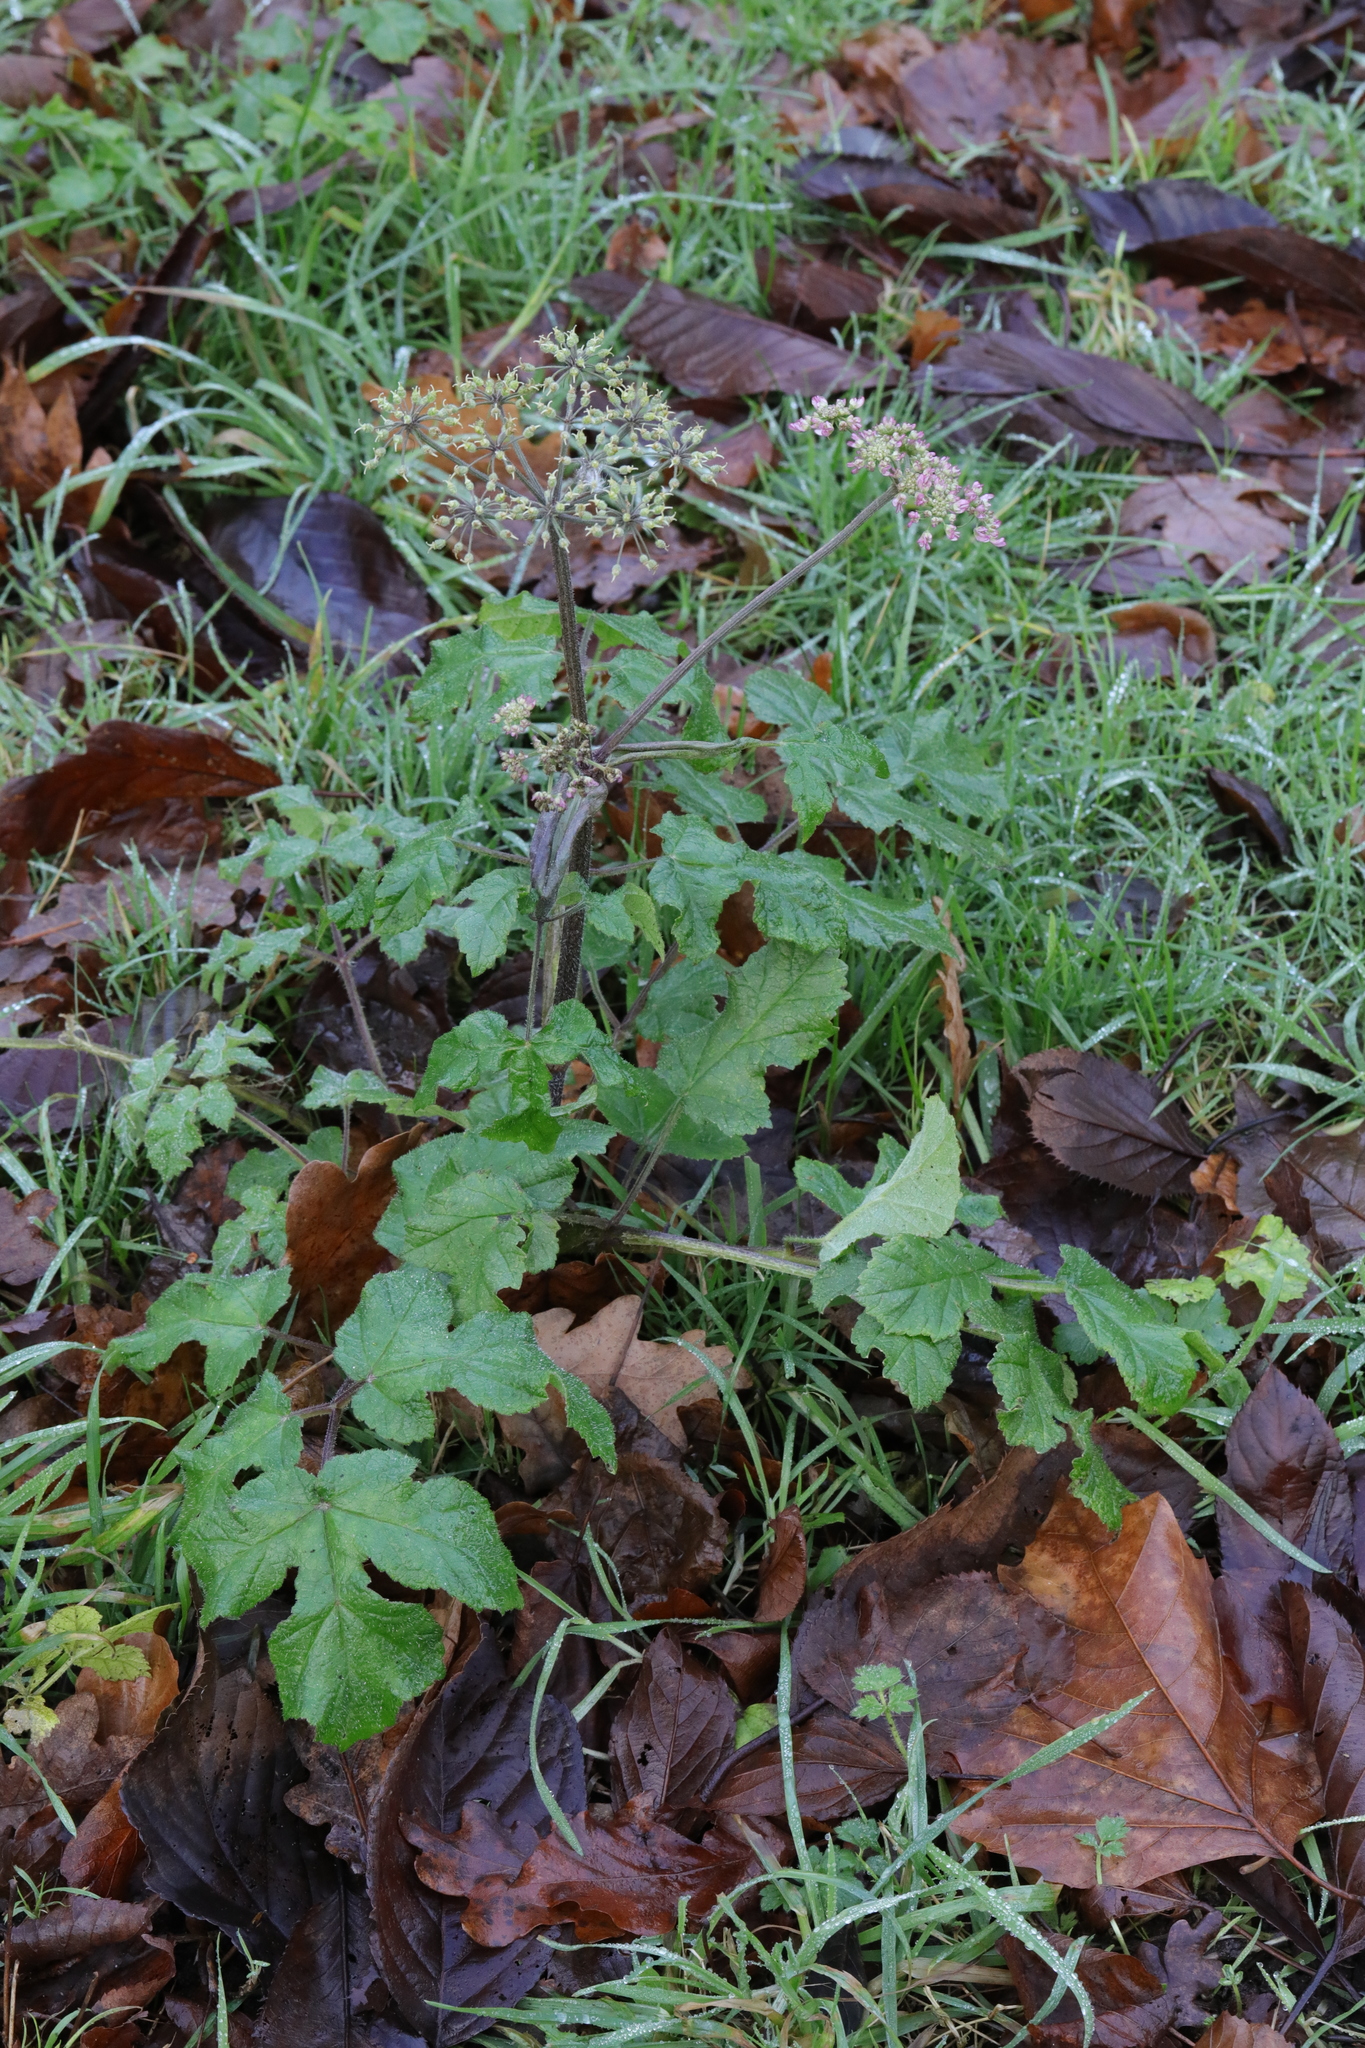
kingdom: Plantae
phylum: Tracheophyta
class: Magnoliopsida
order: Apiales
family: Apiaceae
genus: Heracleum
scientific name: Heracleum sphondylium
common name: Hogweed
